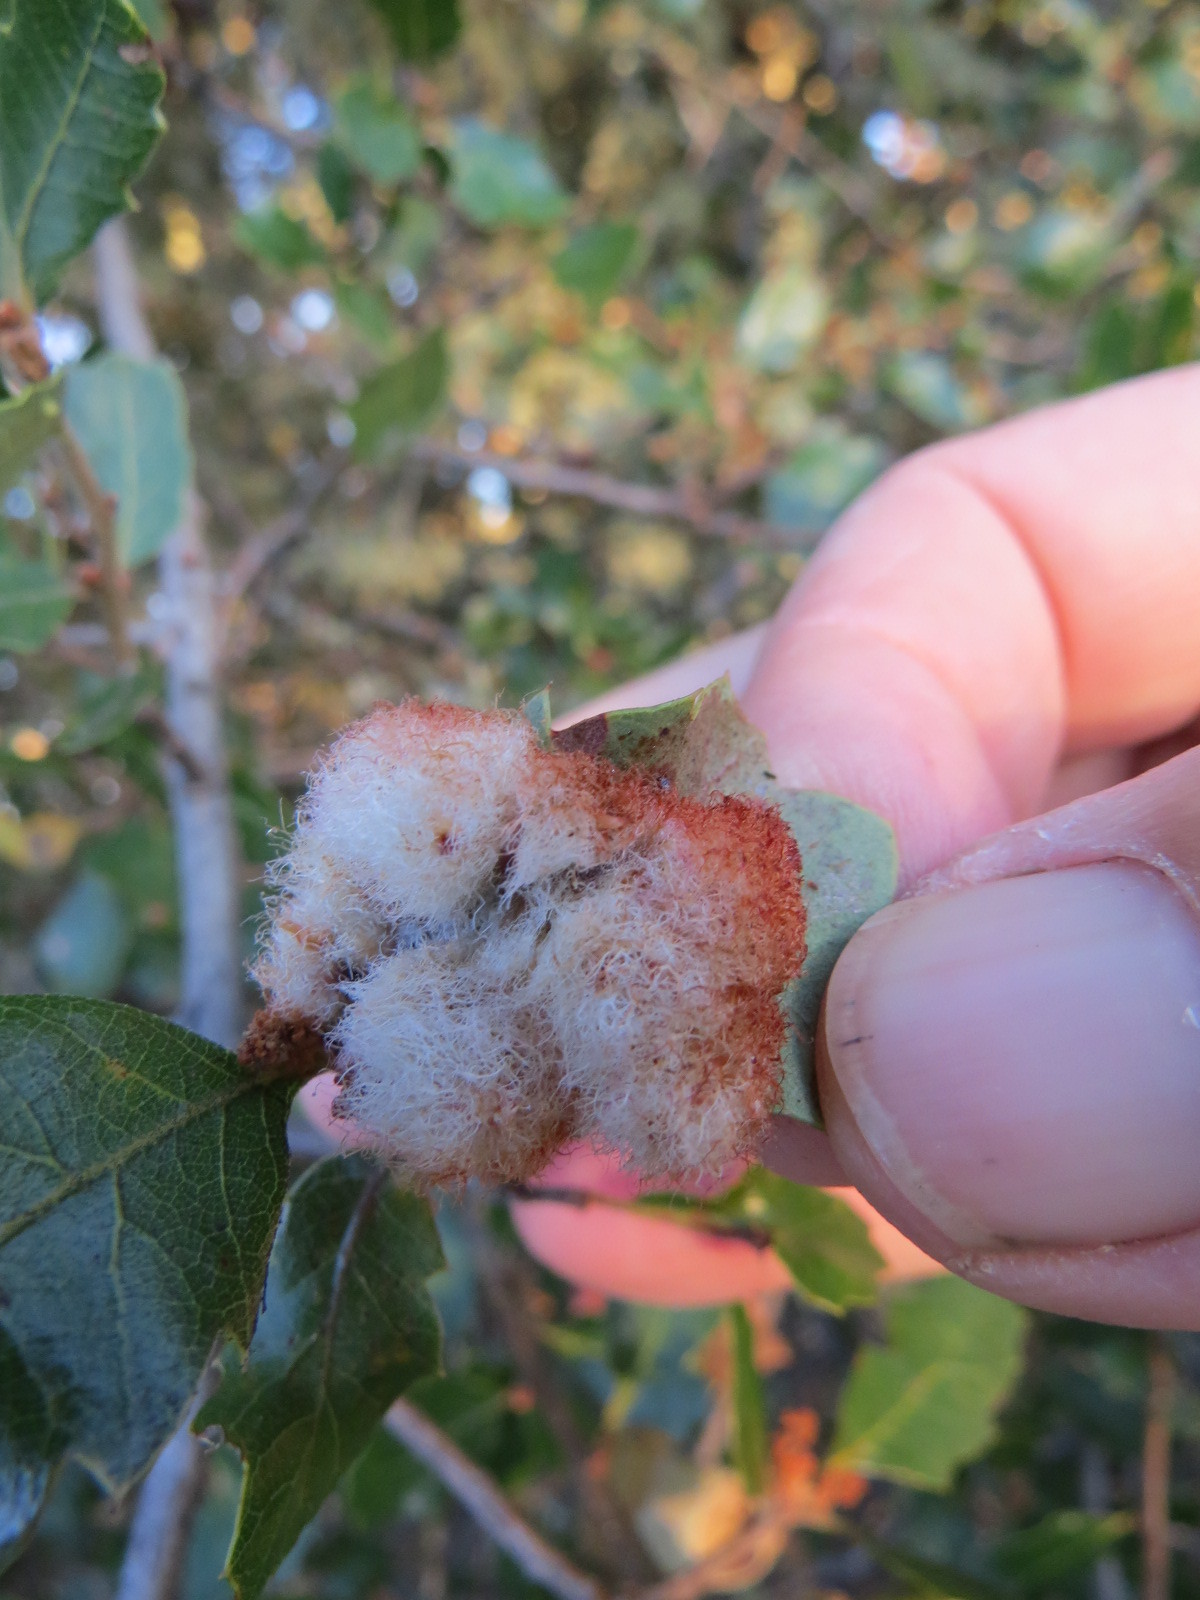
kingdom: Animalia
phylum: Arthropoda
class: Insecta
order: Hymenoptera
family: Cynipidae
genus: Andricus
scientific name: Andricus
